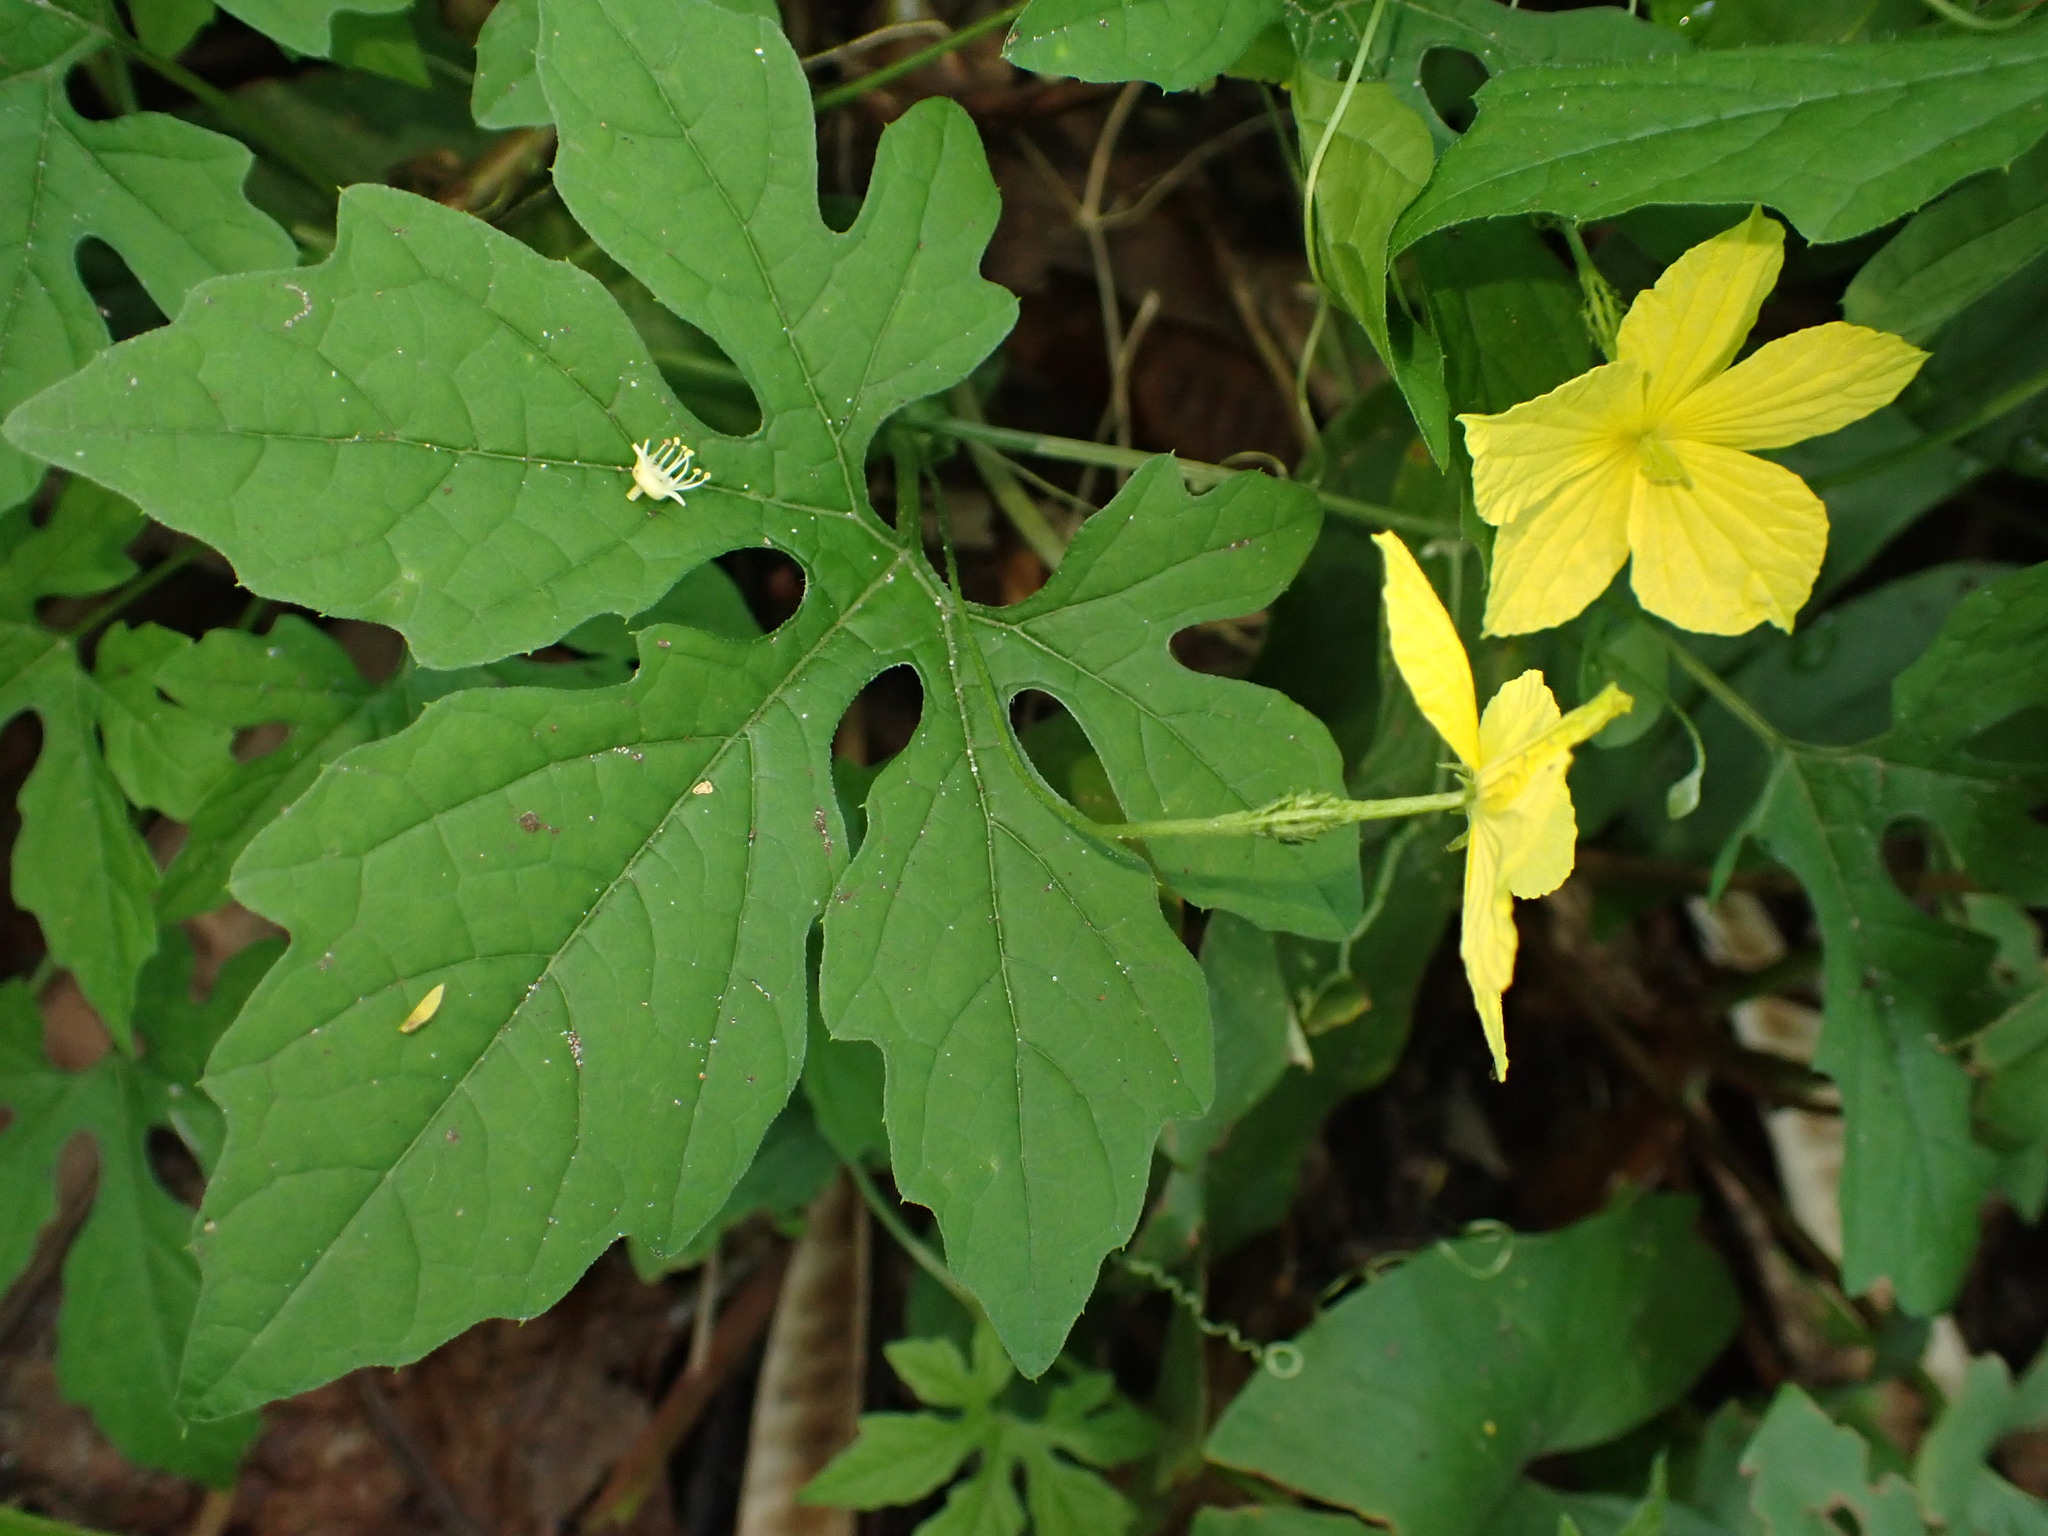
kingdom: Plantae
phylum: Tracheophyta
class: Magnoliopsida
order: Cucurbitales
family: Cucurbitaceae
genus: Momordica
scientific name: Momordica charantia
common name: Balsampear
